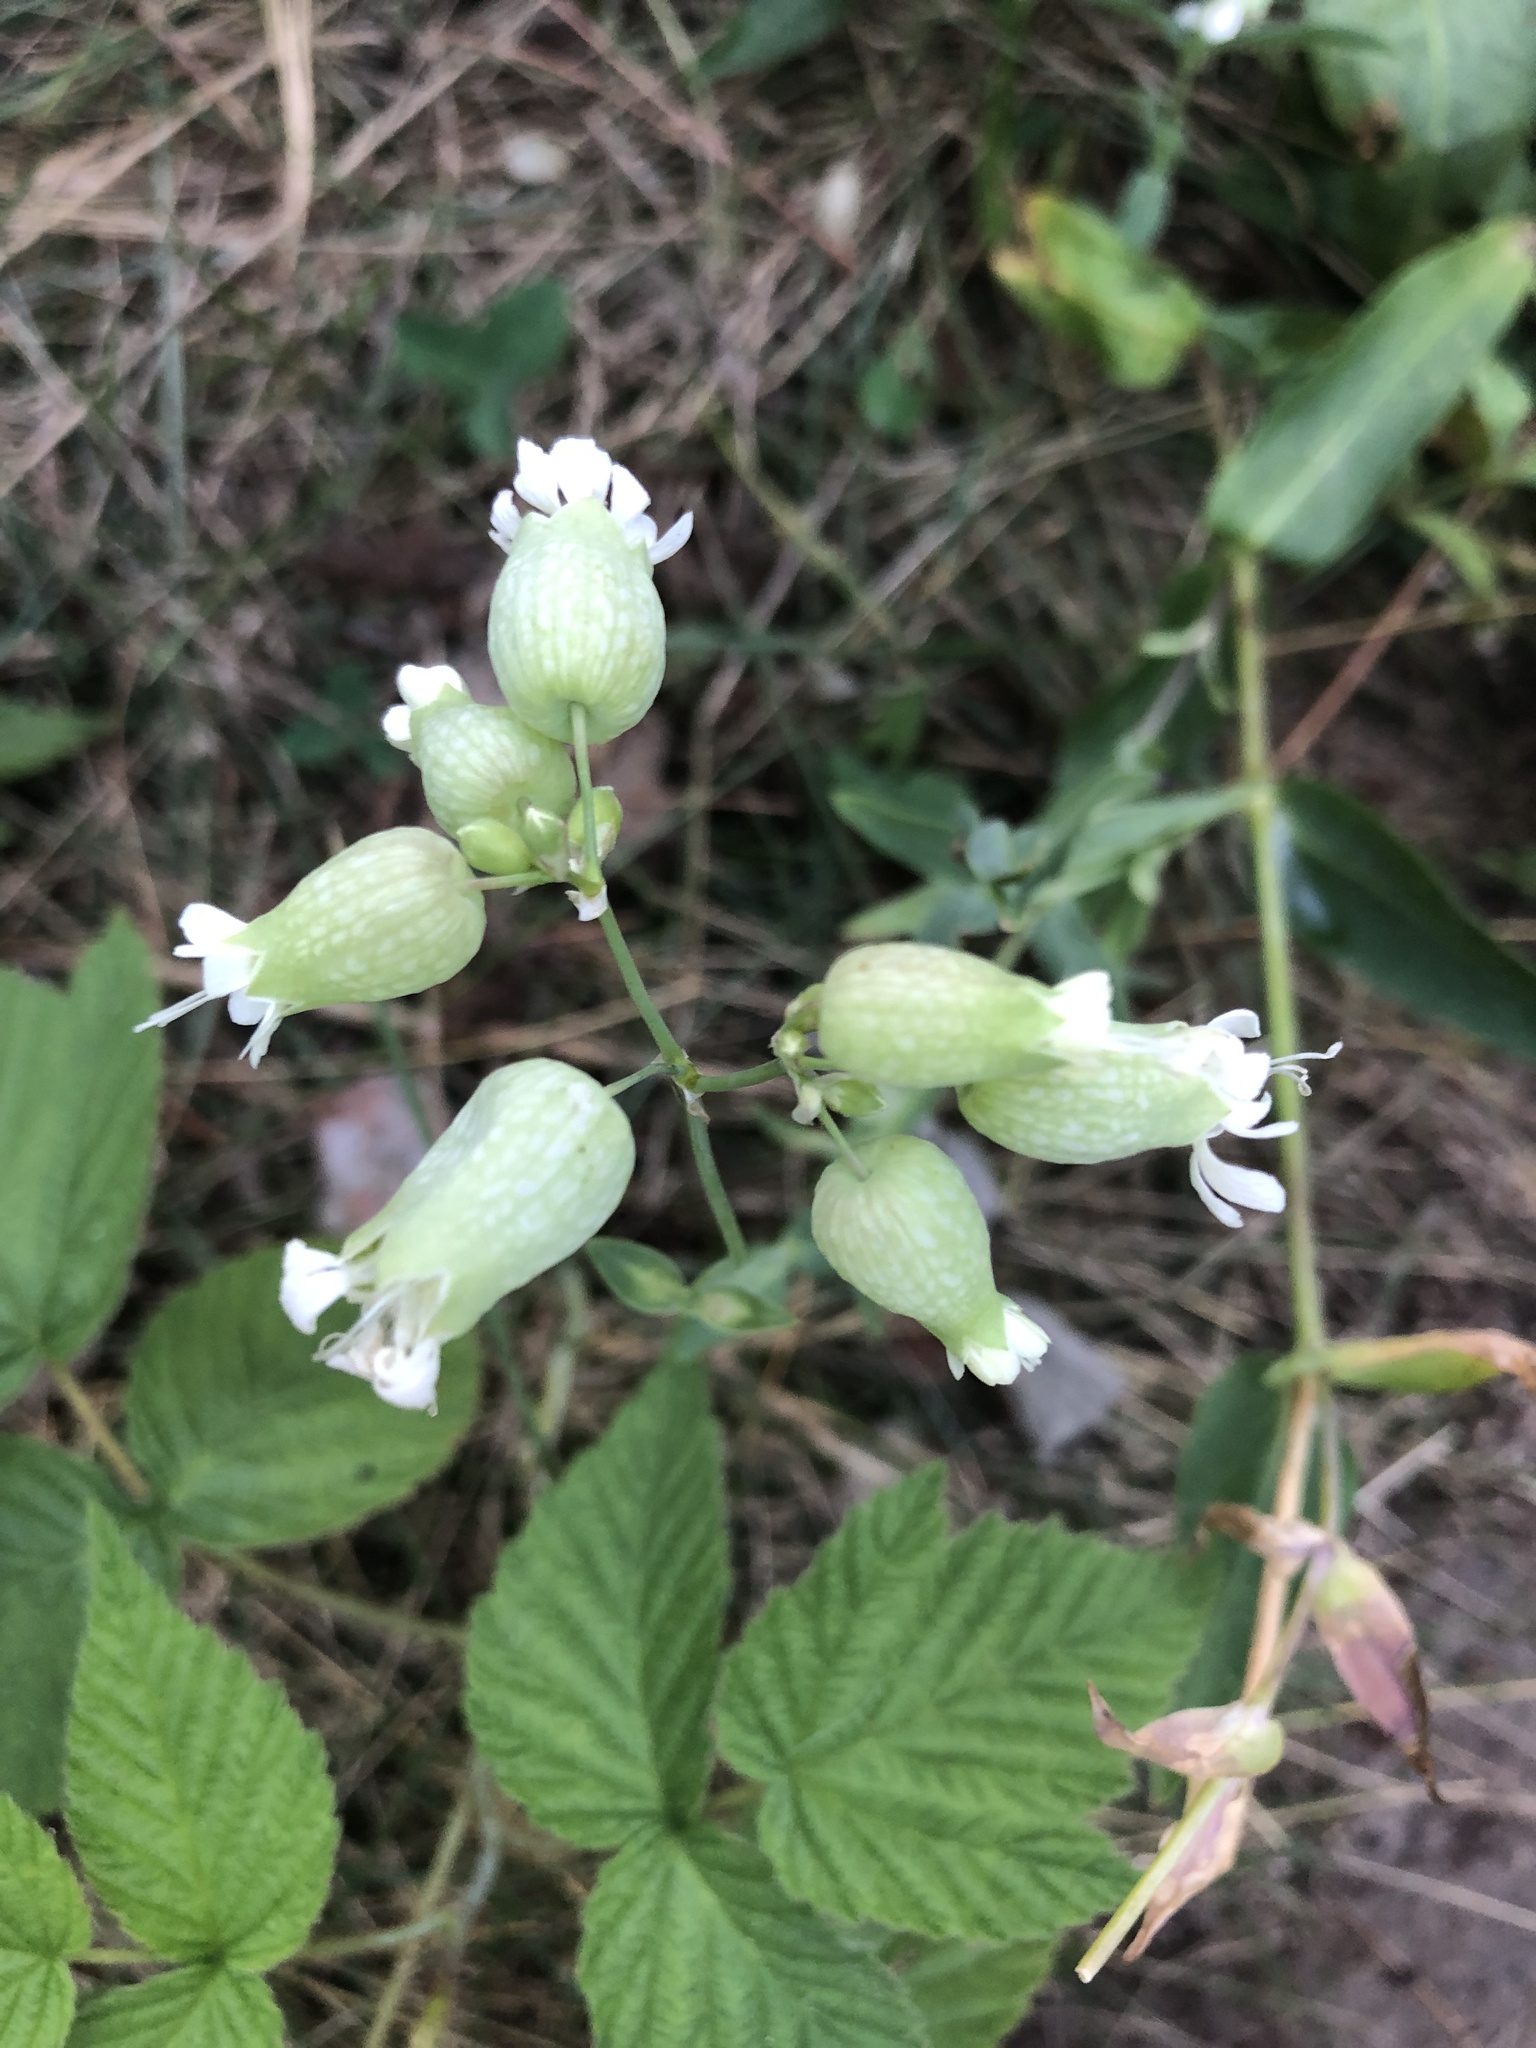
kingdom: Plantae
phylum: Tracheophyta
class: Magnoliopsida
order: Caryophyllales
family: Caryophyllaceae
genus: Silene
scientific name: Silene vulgaris
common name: Bladder campion
